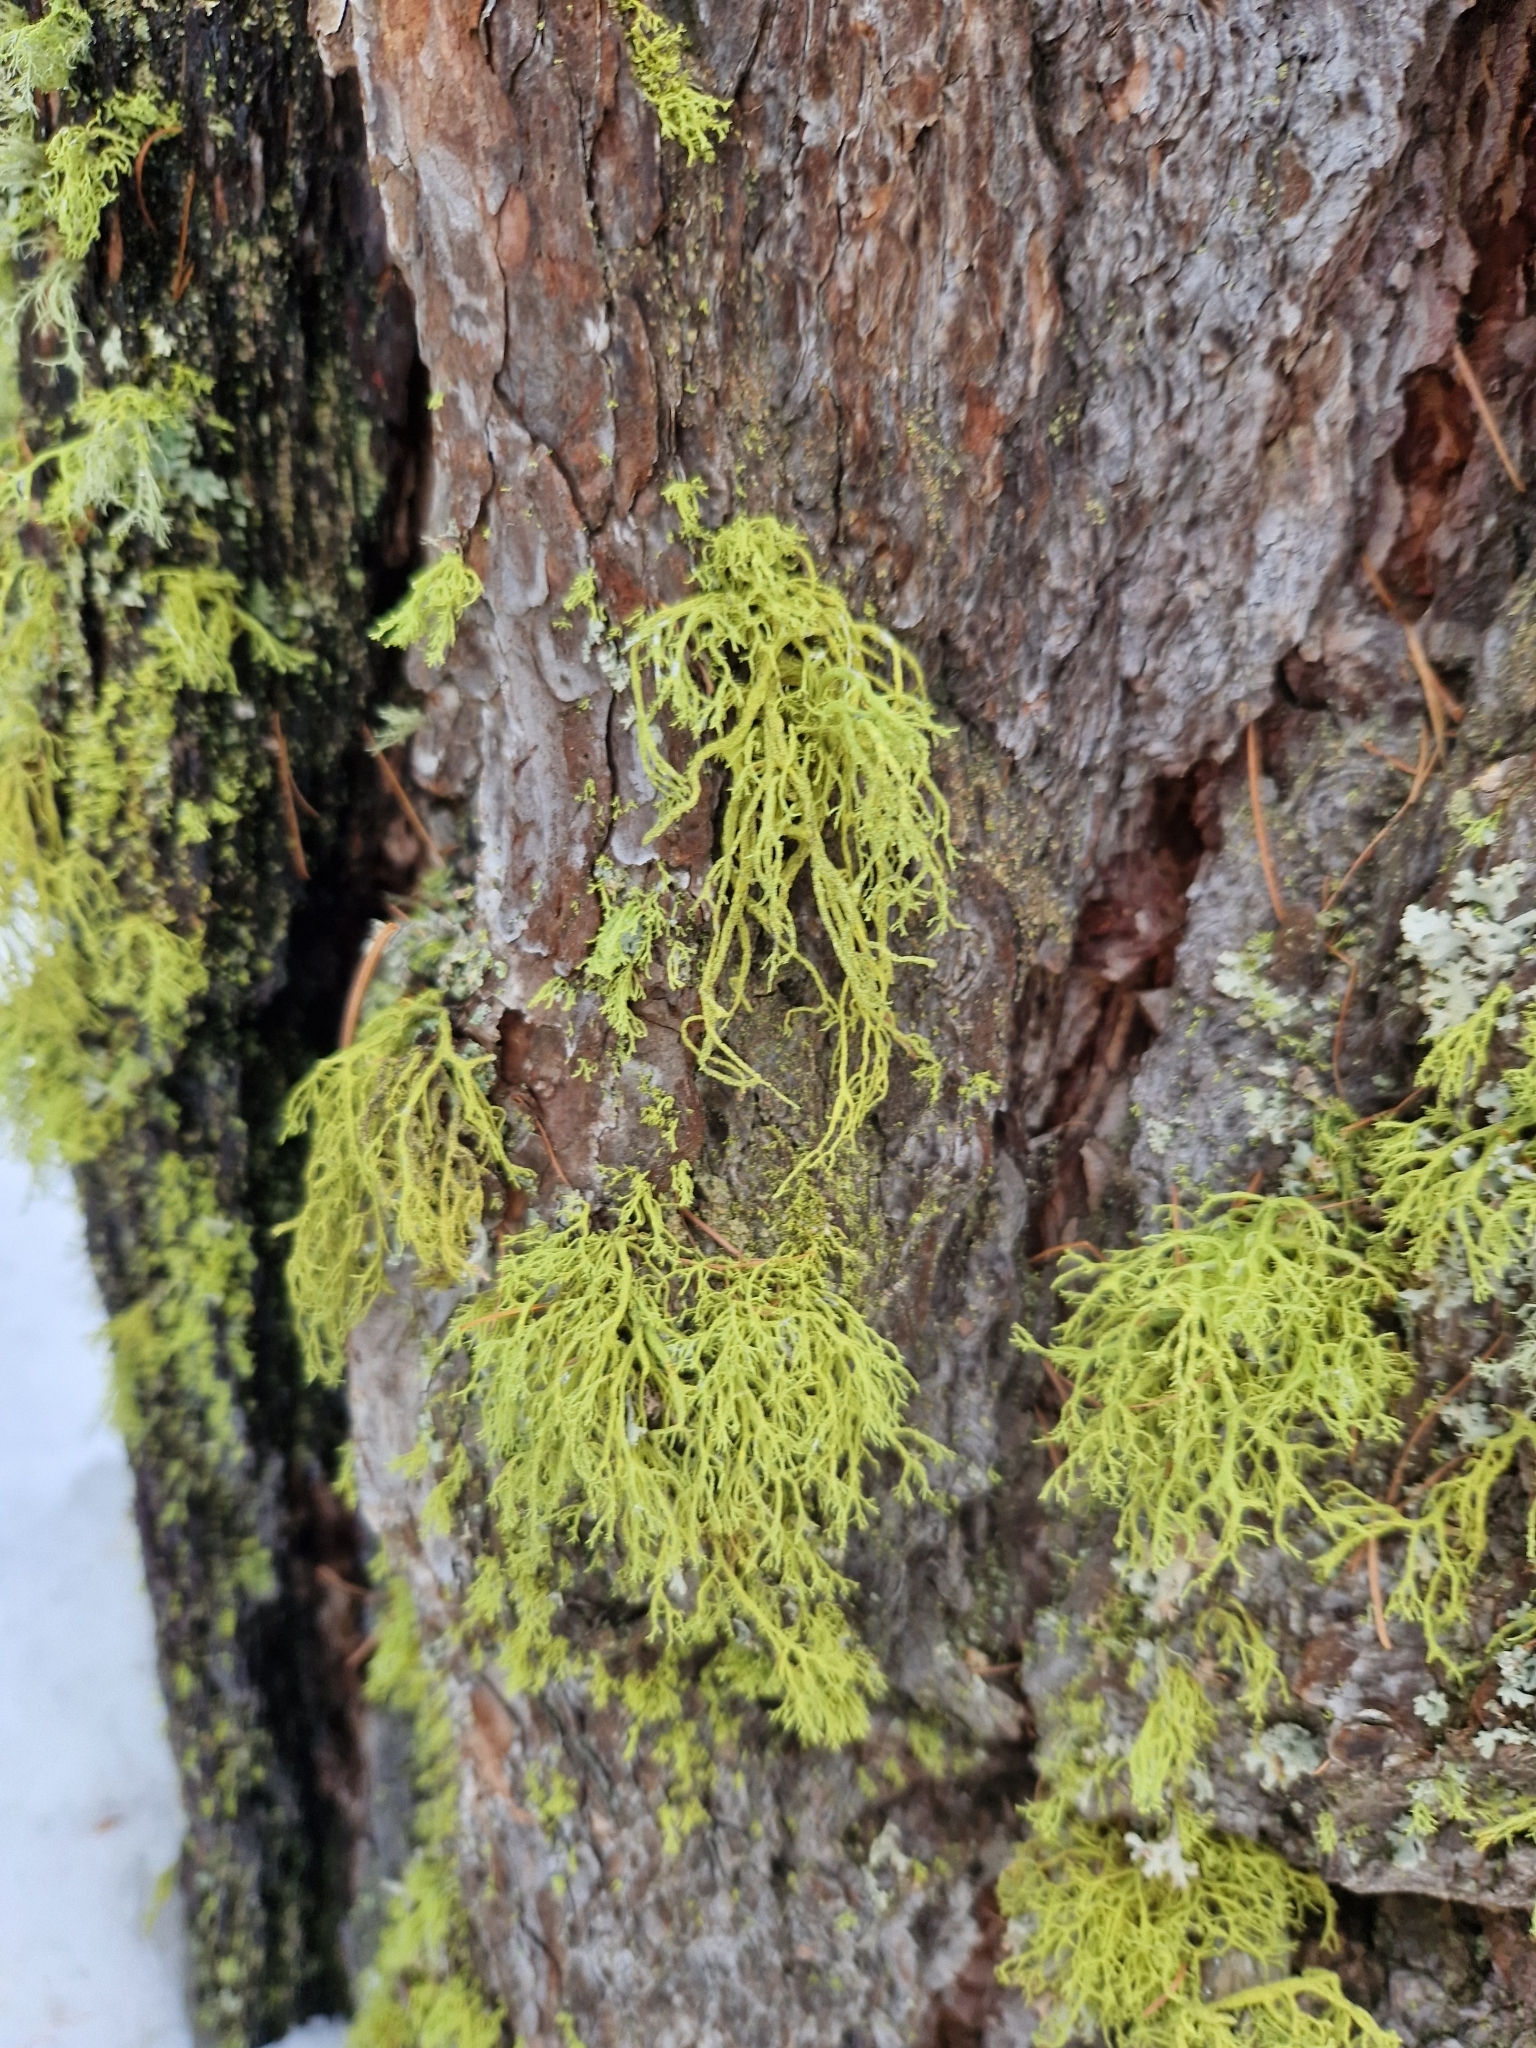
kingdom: Fungi
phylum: Ascomycota
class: Lecanoromycetes
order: Lecanorales
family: Parmeliaceae
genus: Letharia
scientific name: Letharia vulpina
